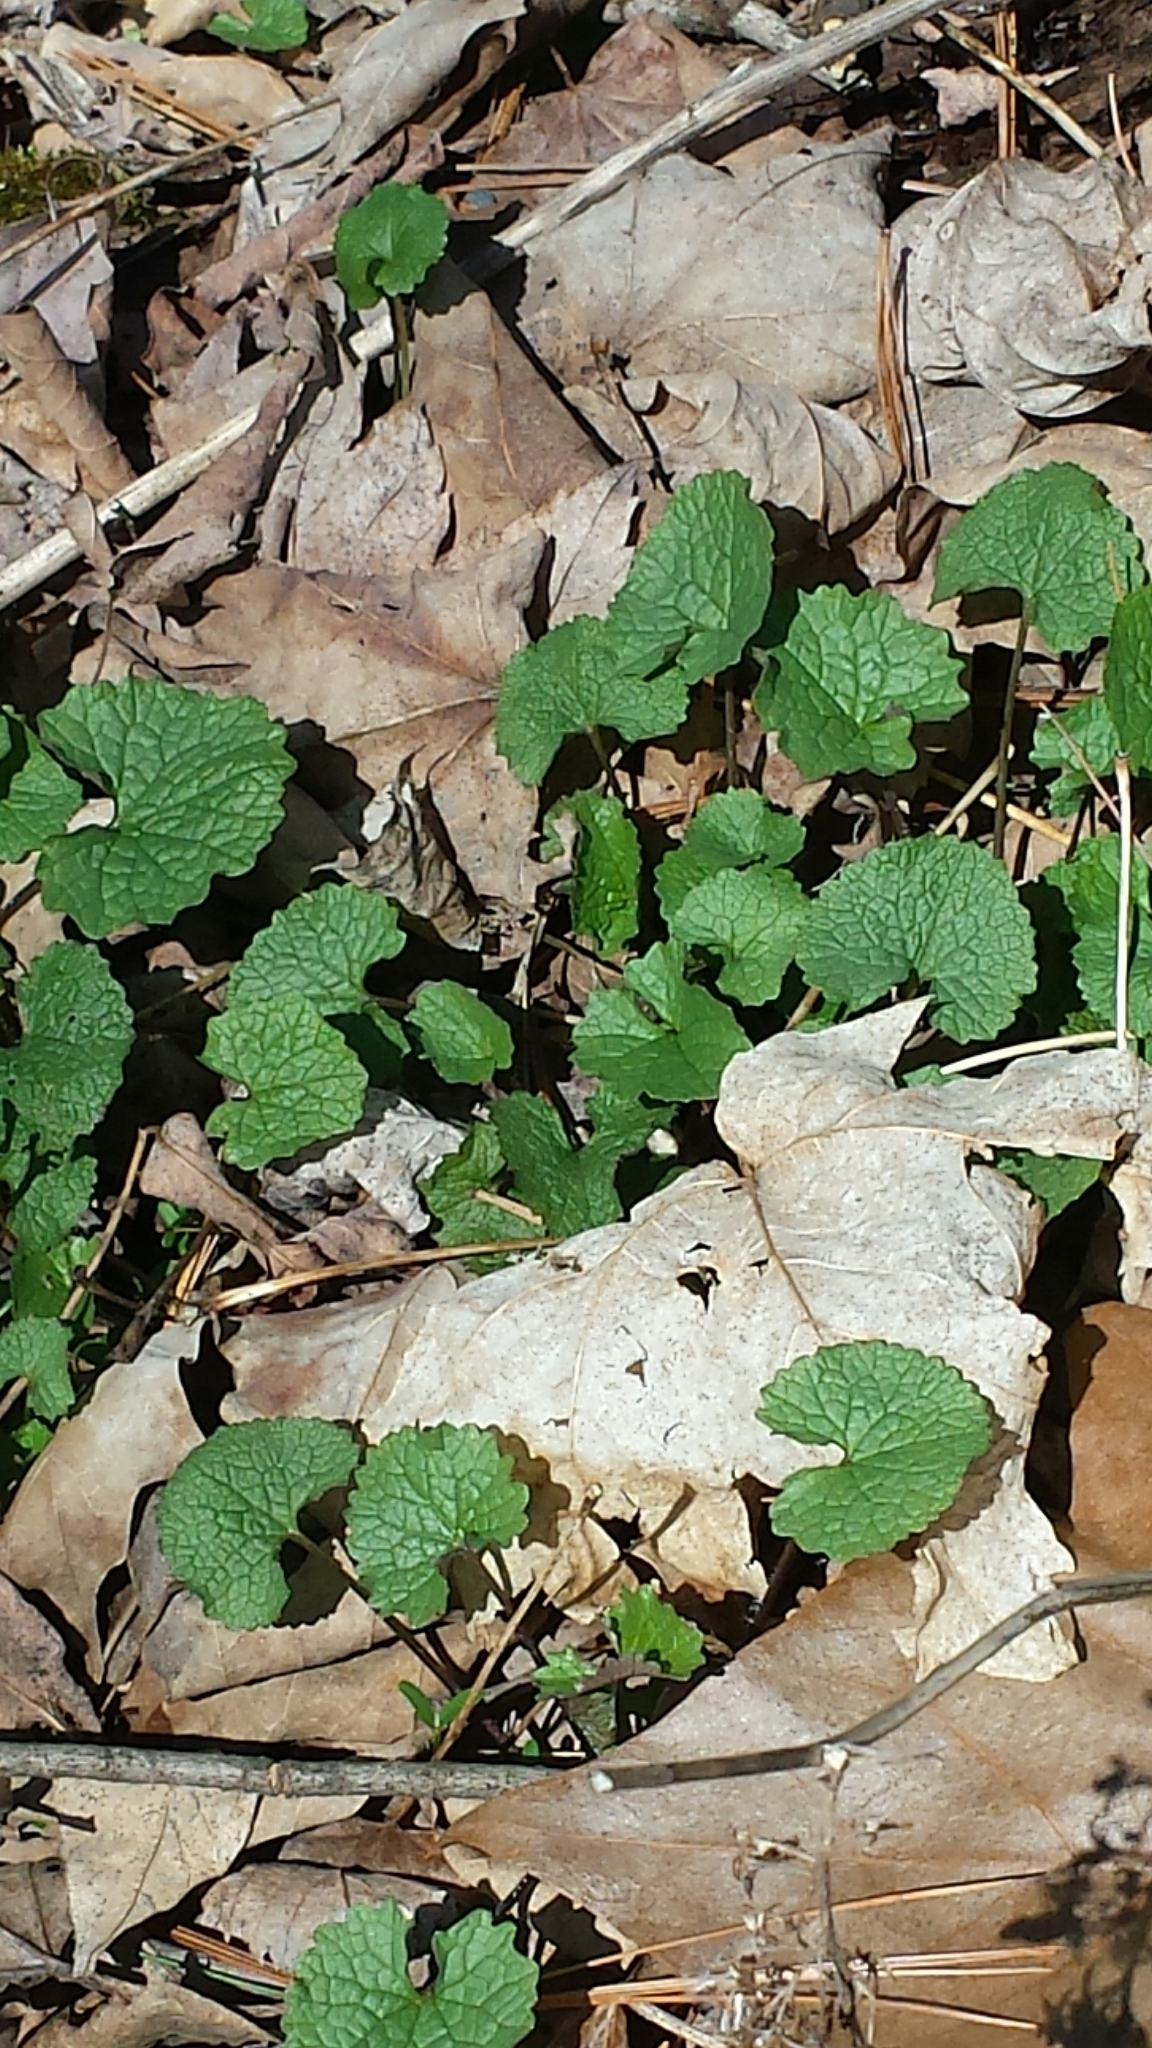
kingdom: Plantae
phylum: Tracheophyta
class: Magnoliopsida
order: Brassicales
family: Brassicaceae
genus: Alliaria
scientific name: Alliaria petiolata
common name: Garlic mustard
